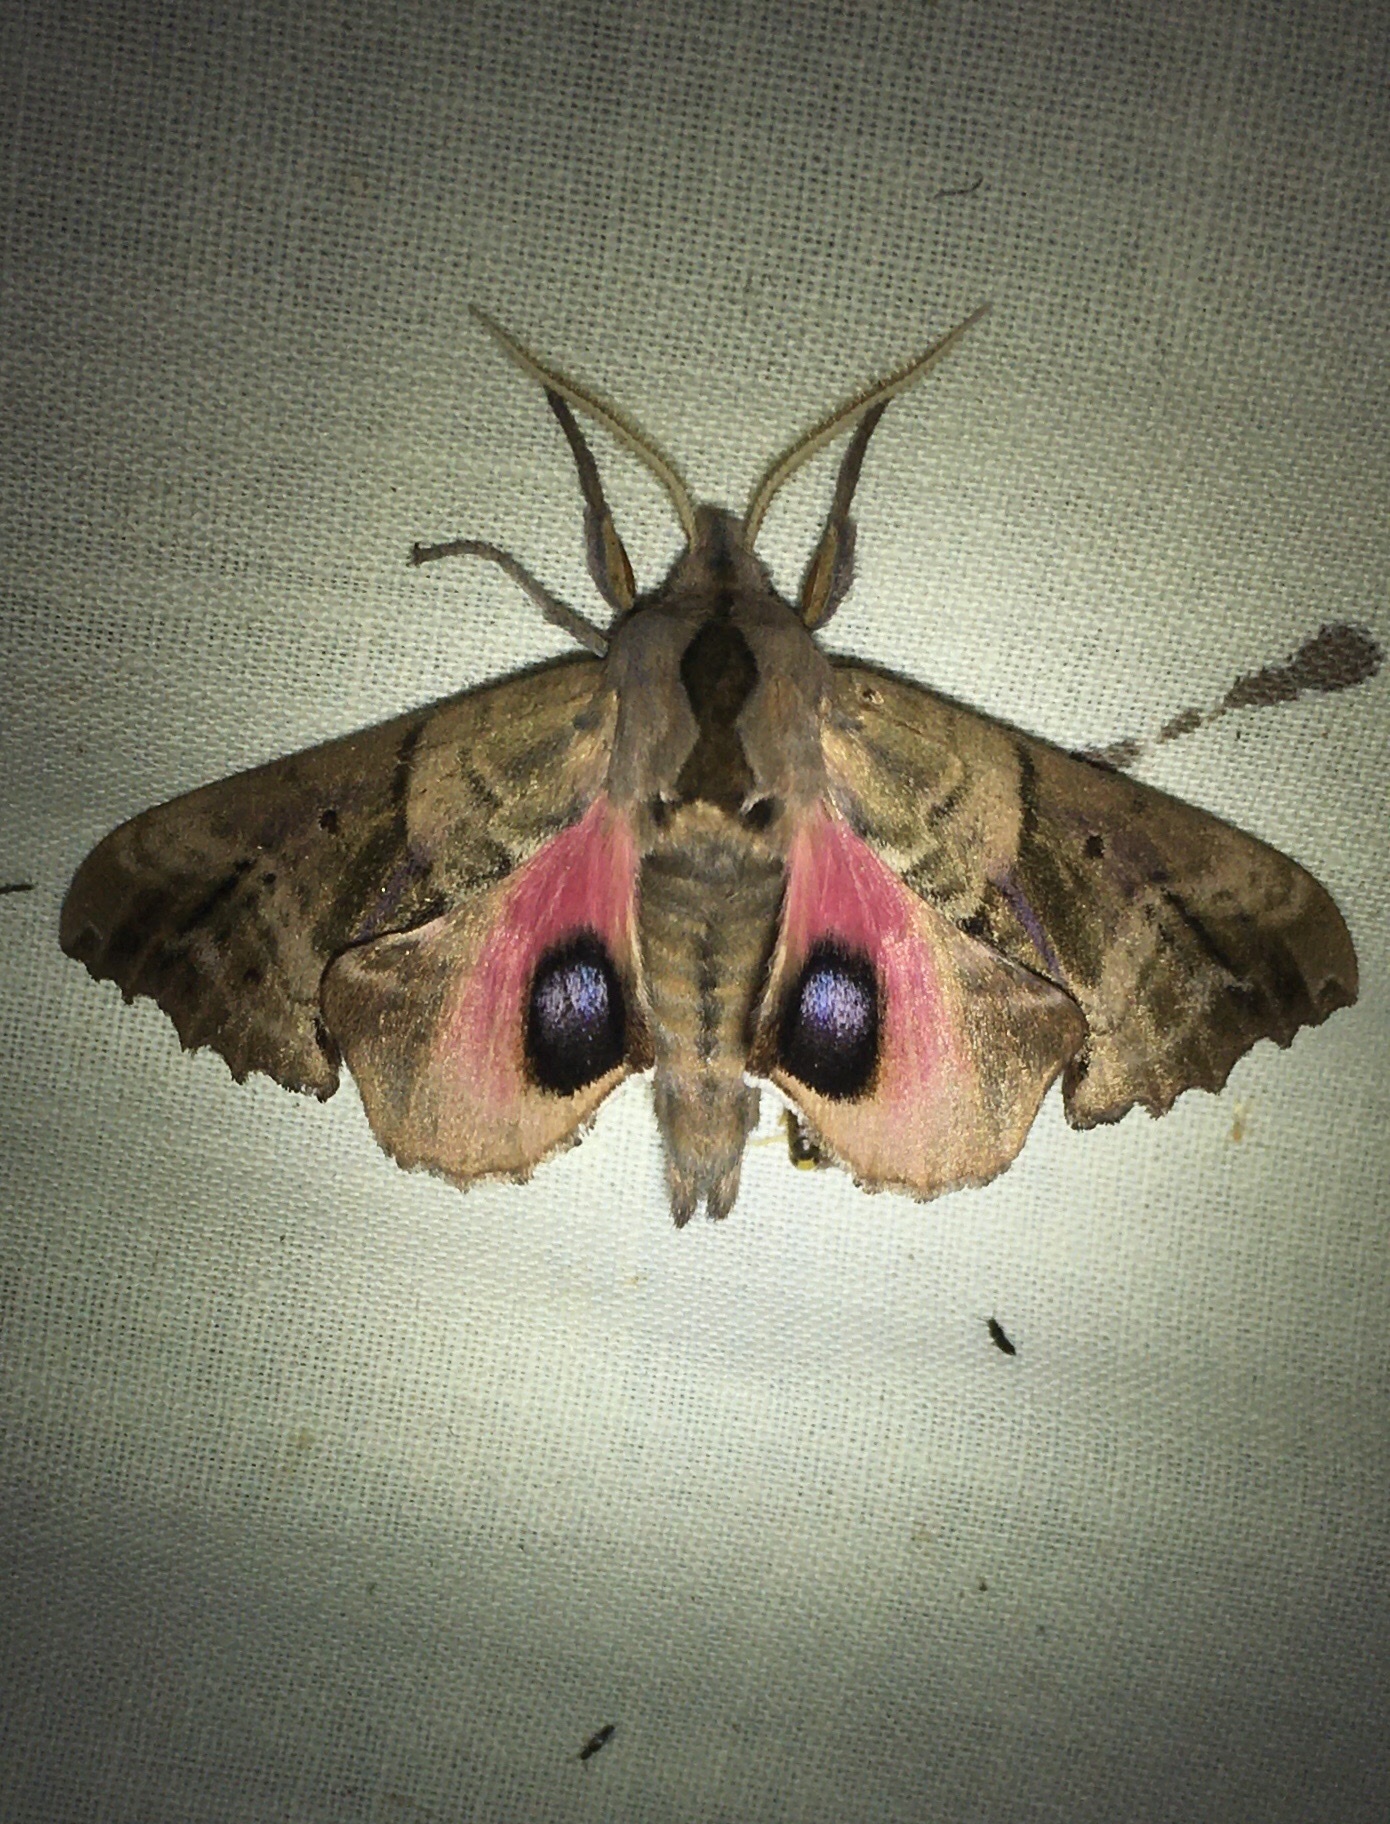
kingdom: Animalia
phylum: Arthropoda
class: Insecta
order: Lepidoptera
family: Sphingidae
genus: Paonias
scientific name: Paonias excaecata
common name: Blind-eyed sphinx
